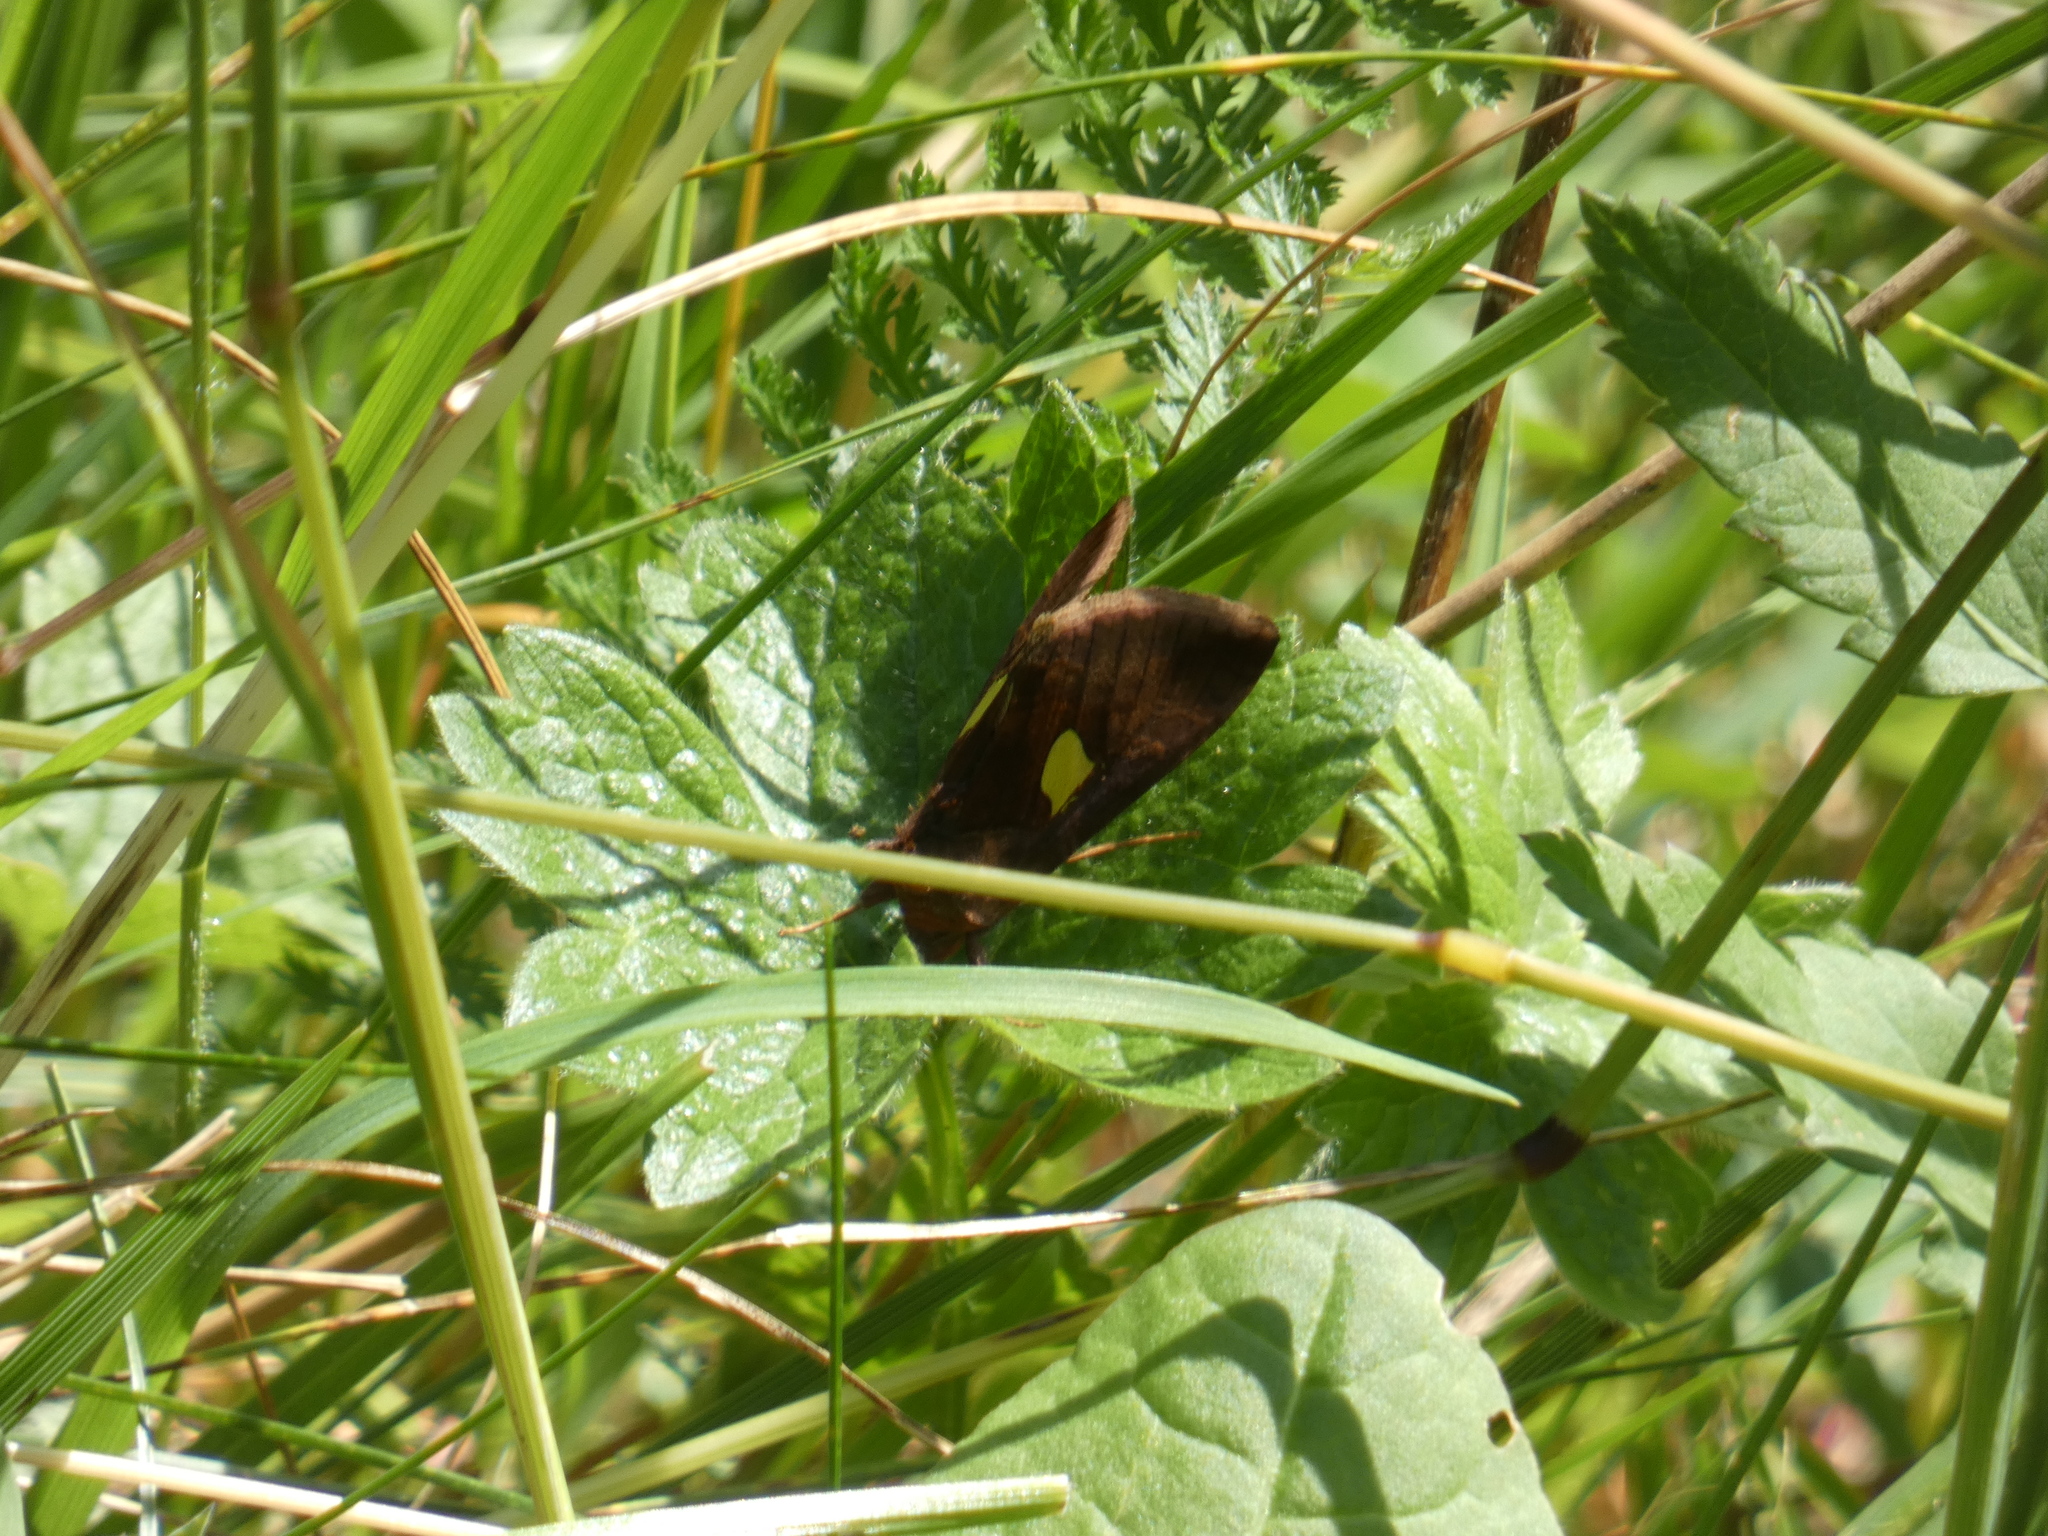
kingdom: Animalia
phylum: Arthropoda
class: Insecta
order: Lepidoptera
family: Noctuidae
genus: Autographa
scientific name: Autographa bractea
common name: Gold spangle
